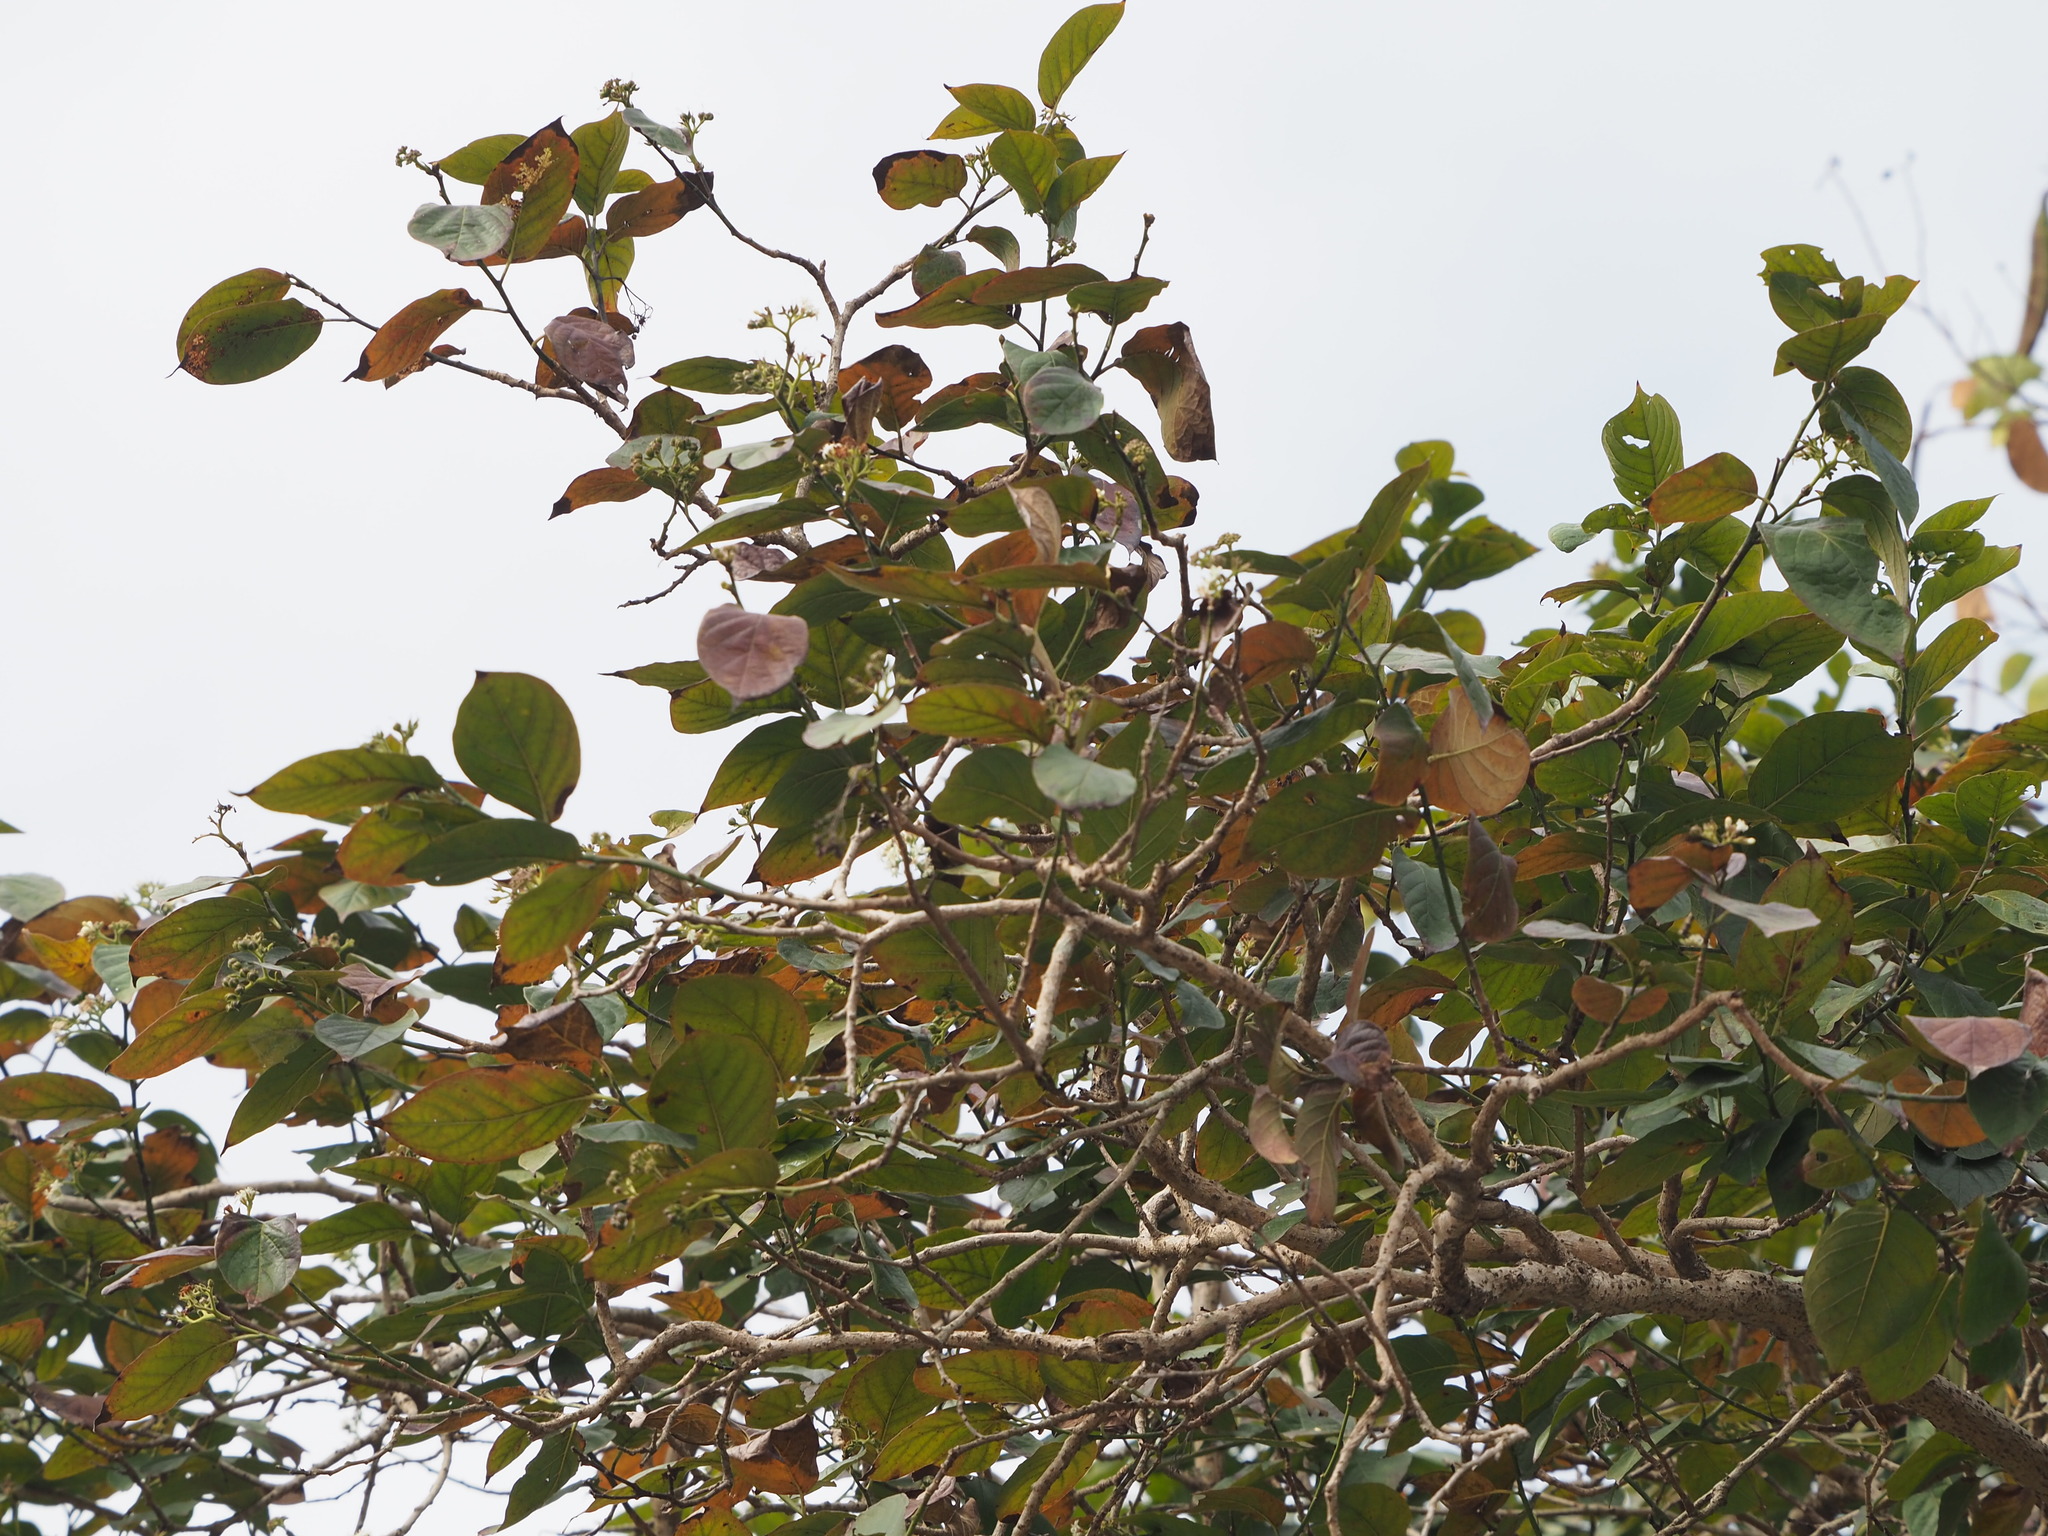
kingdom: Plantae
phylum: Tracheophyta
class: Magnoliopsida
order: Boraginales
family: Ehretiaceae
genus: Ehretia
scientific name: Ehretia resinosa
